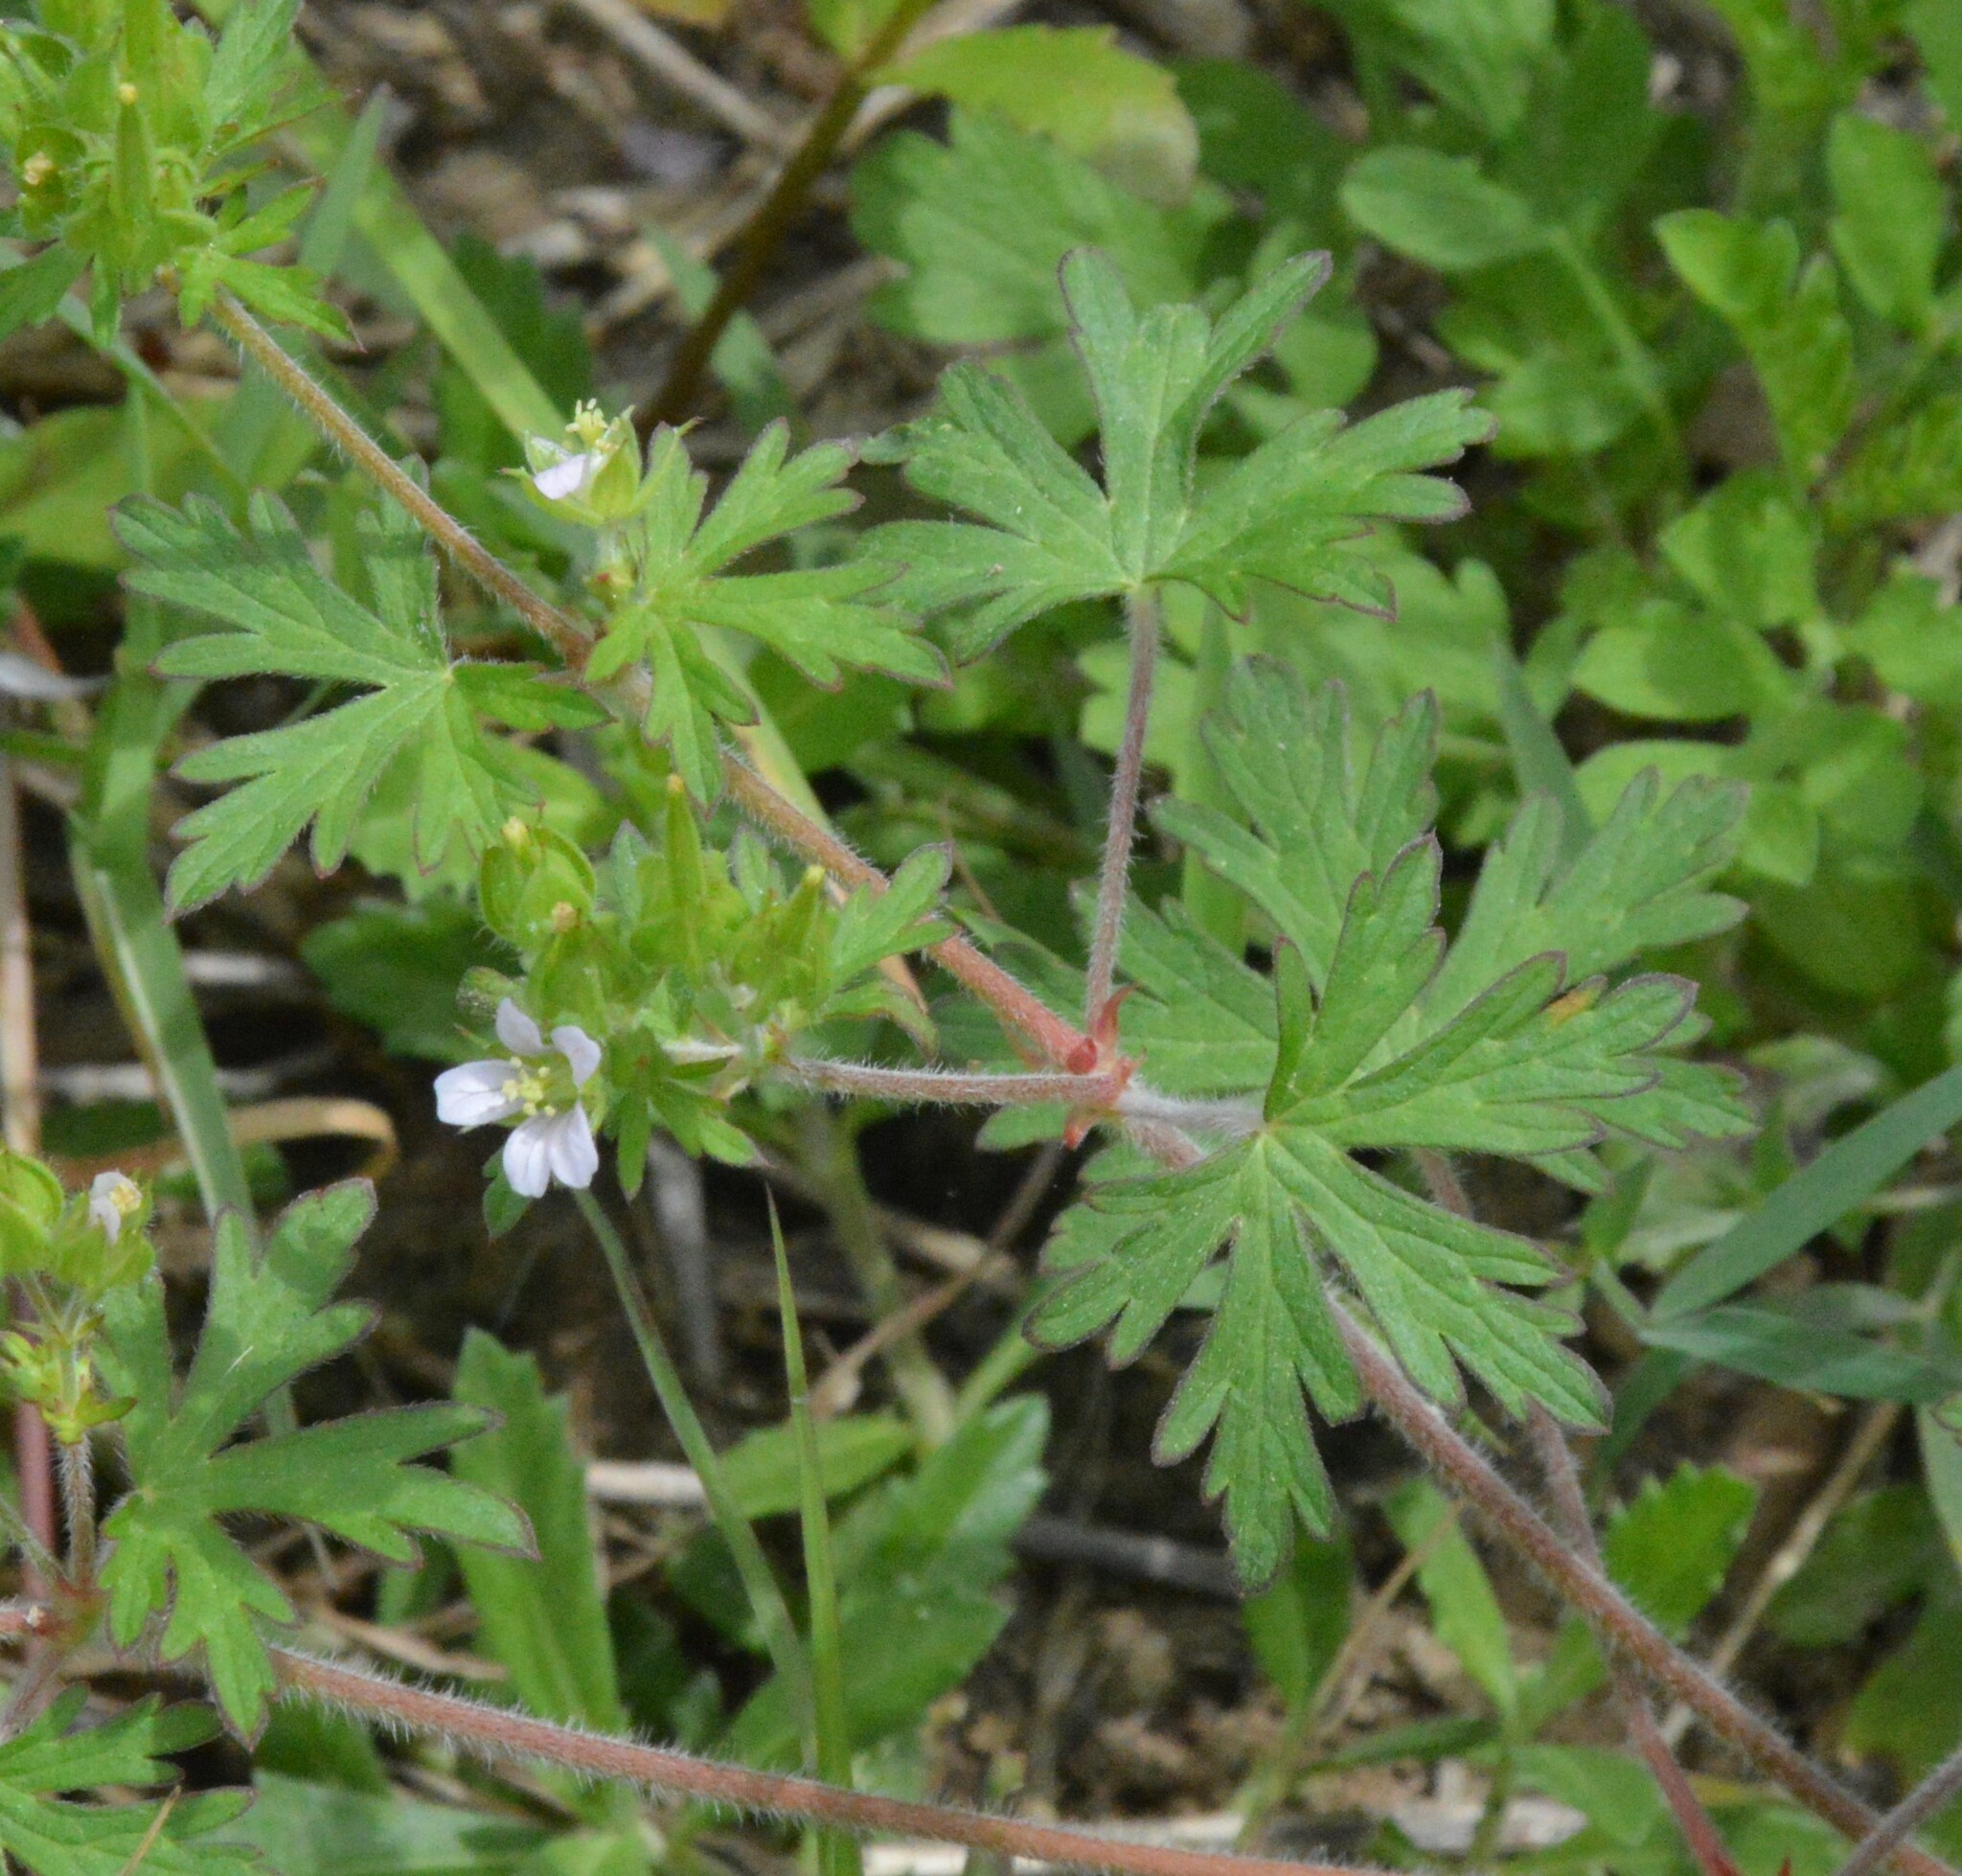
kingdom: Plantae
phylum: Tracheophyta
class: Magnoliopsida
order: Geraniales
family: Geraniaceae
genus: Geranium
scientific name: Geranium carolinianum
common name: Carolina crane's-bill
